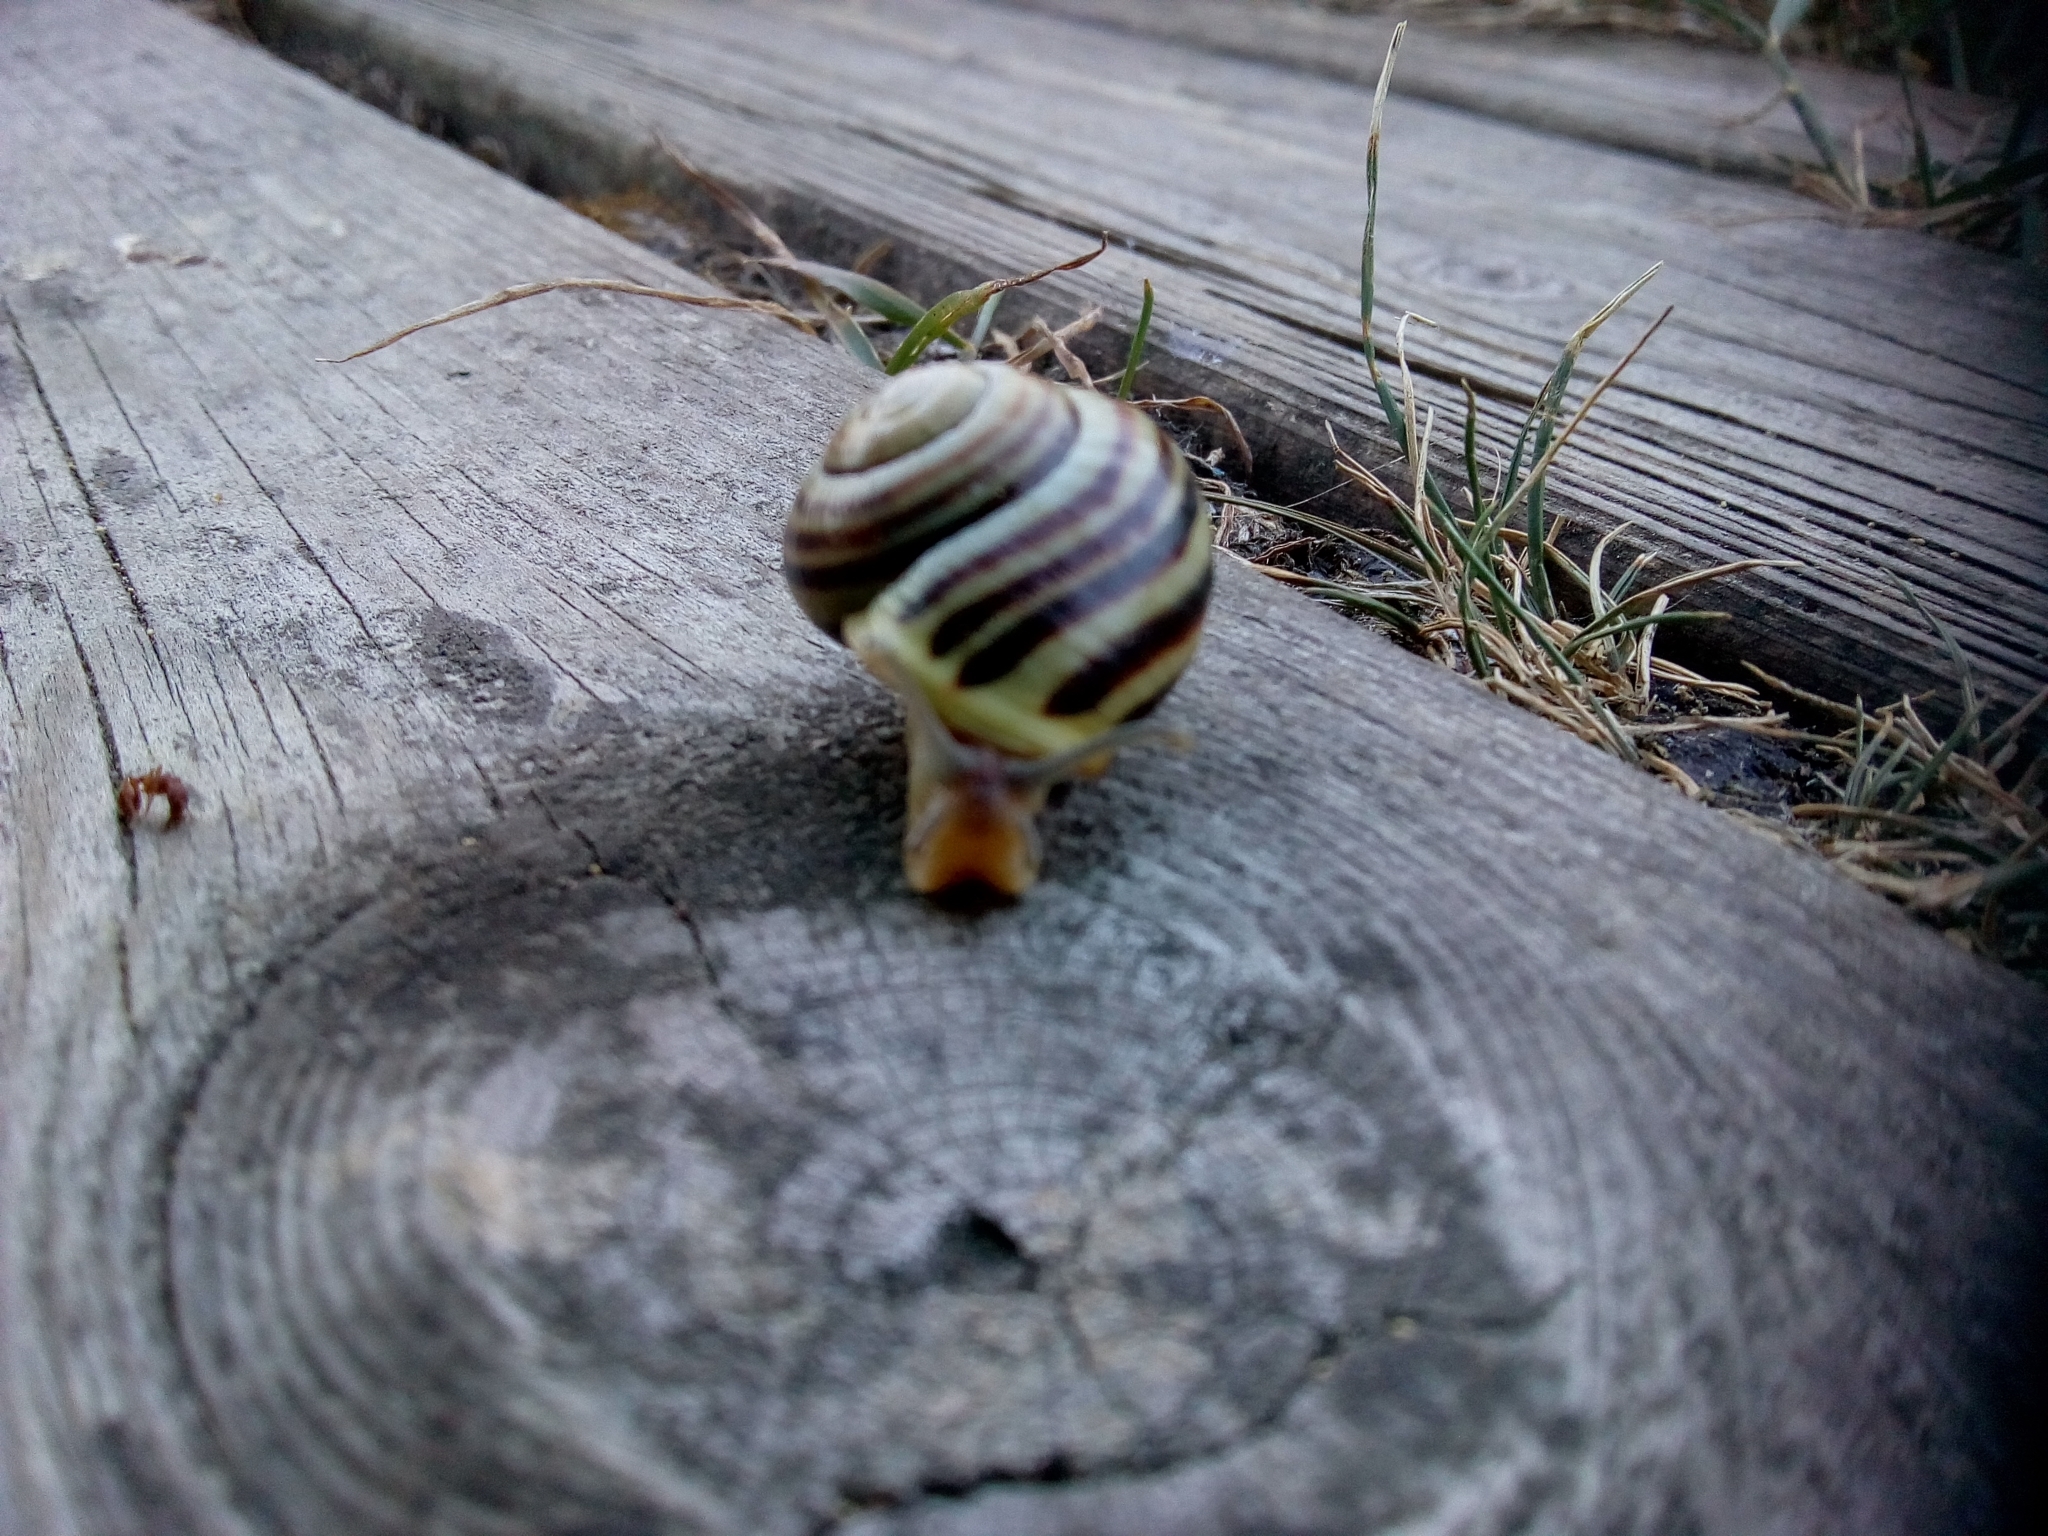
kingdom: Animalia
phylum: Mollusca
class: Gastropoda
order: Stylommatophora
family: Helicidae
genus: Cepaea
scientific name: Cepaea hortensis
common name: White-lip gardensnail
